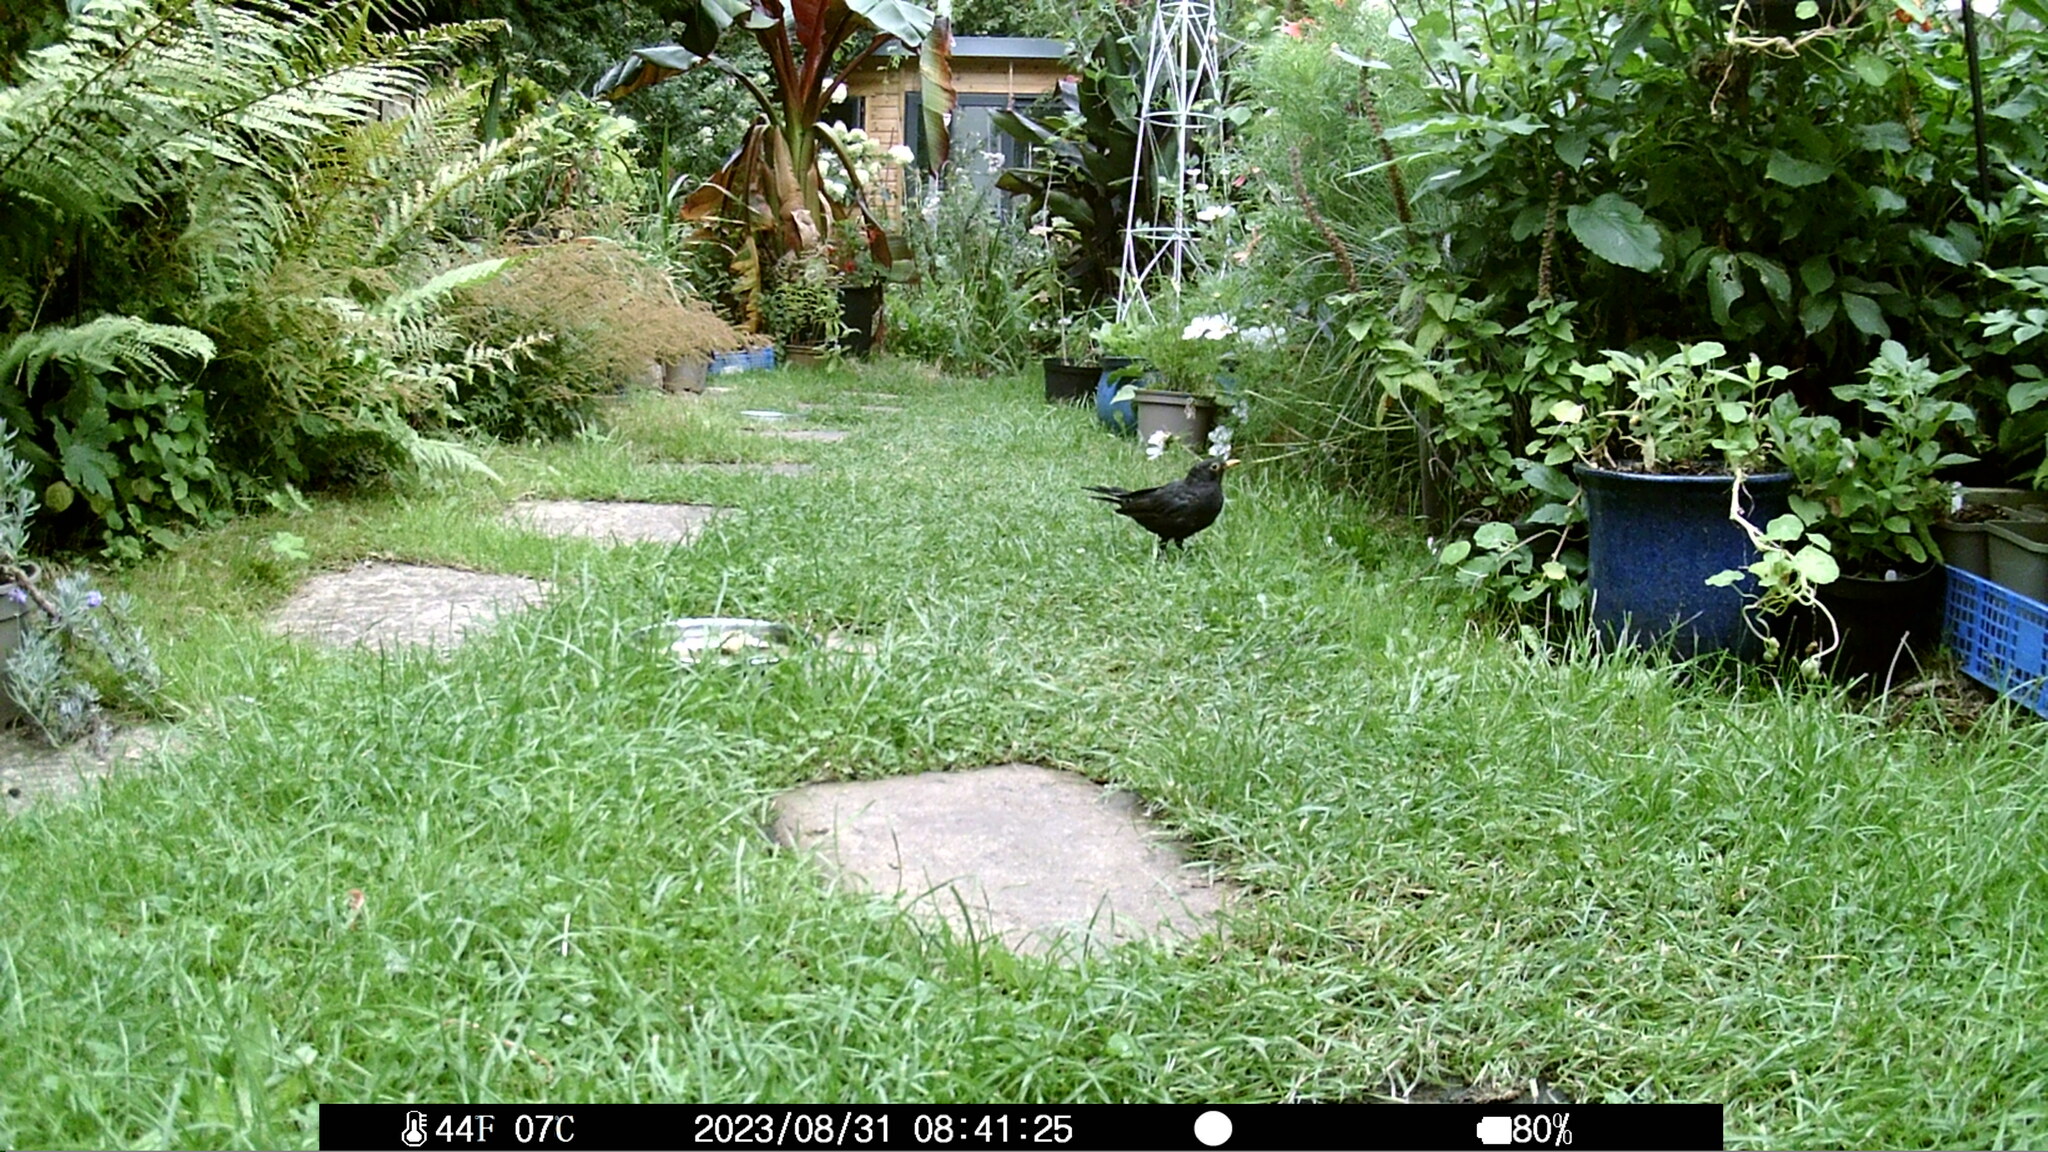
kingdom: Animalia
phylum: Chordata
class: Aves
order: Passeriformes
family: Turdidae
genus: Turdus
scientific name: Turdus merula
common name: Common blackbird
